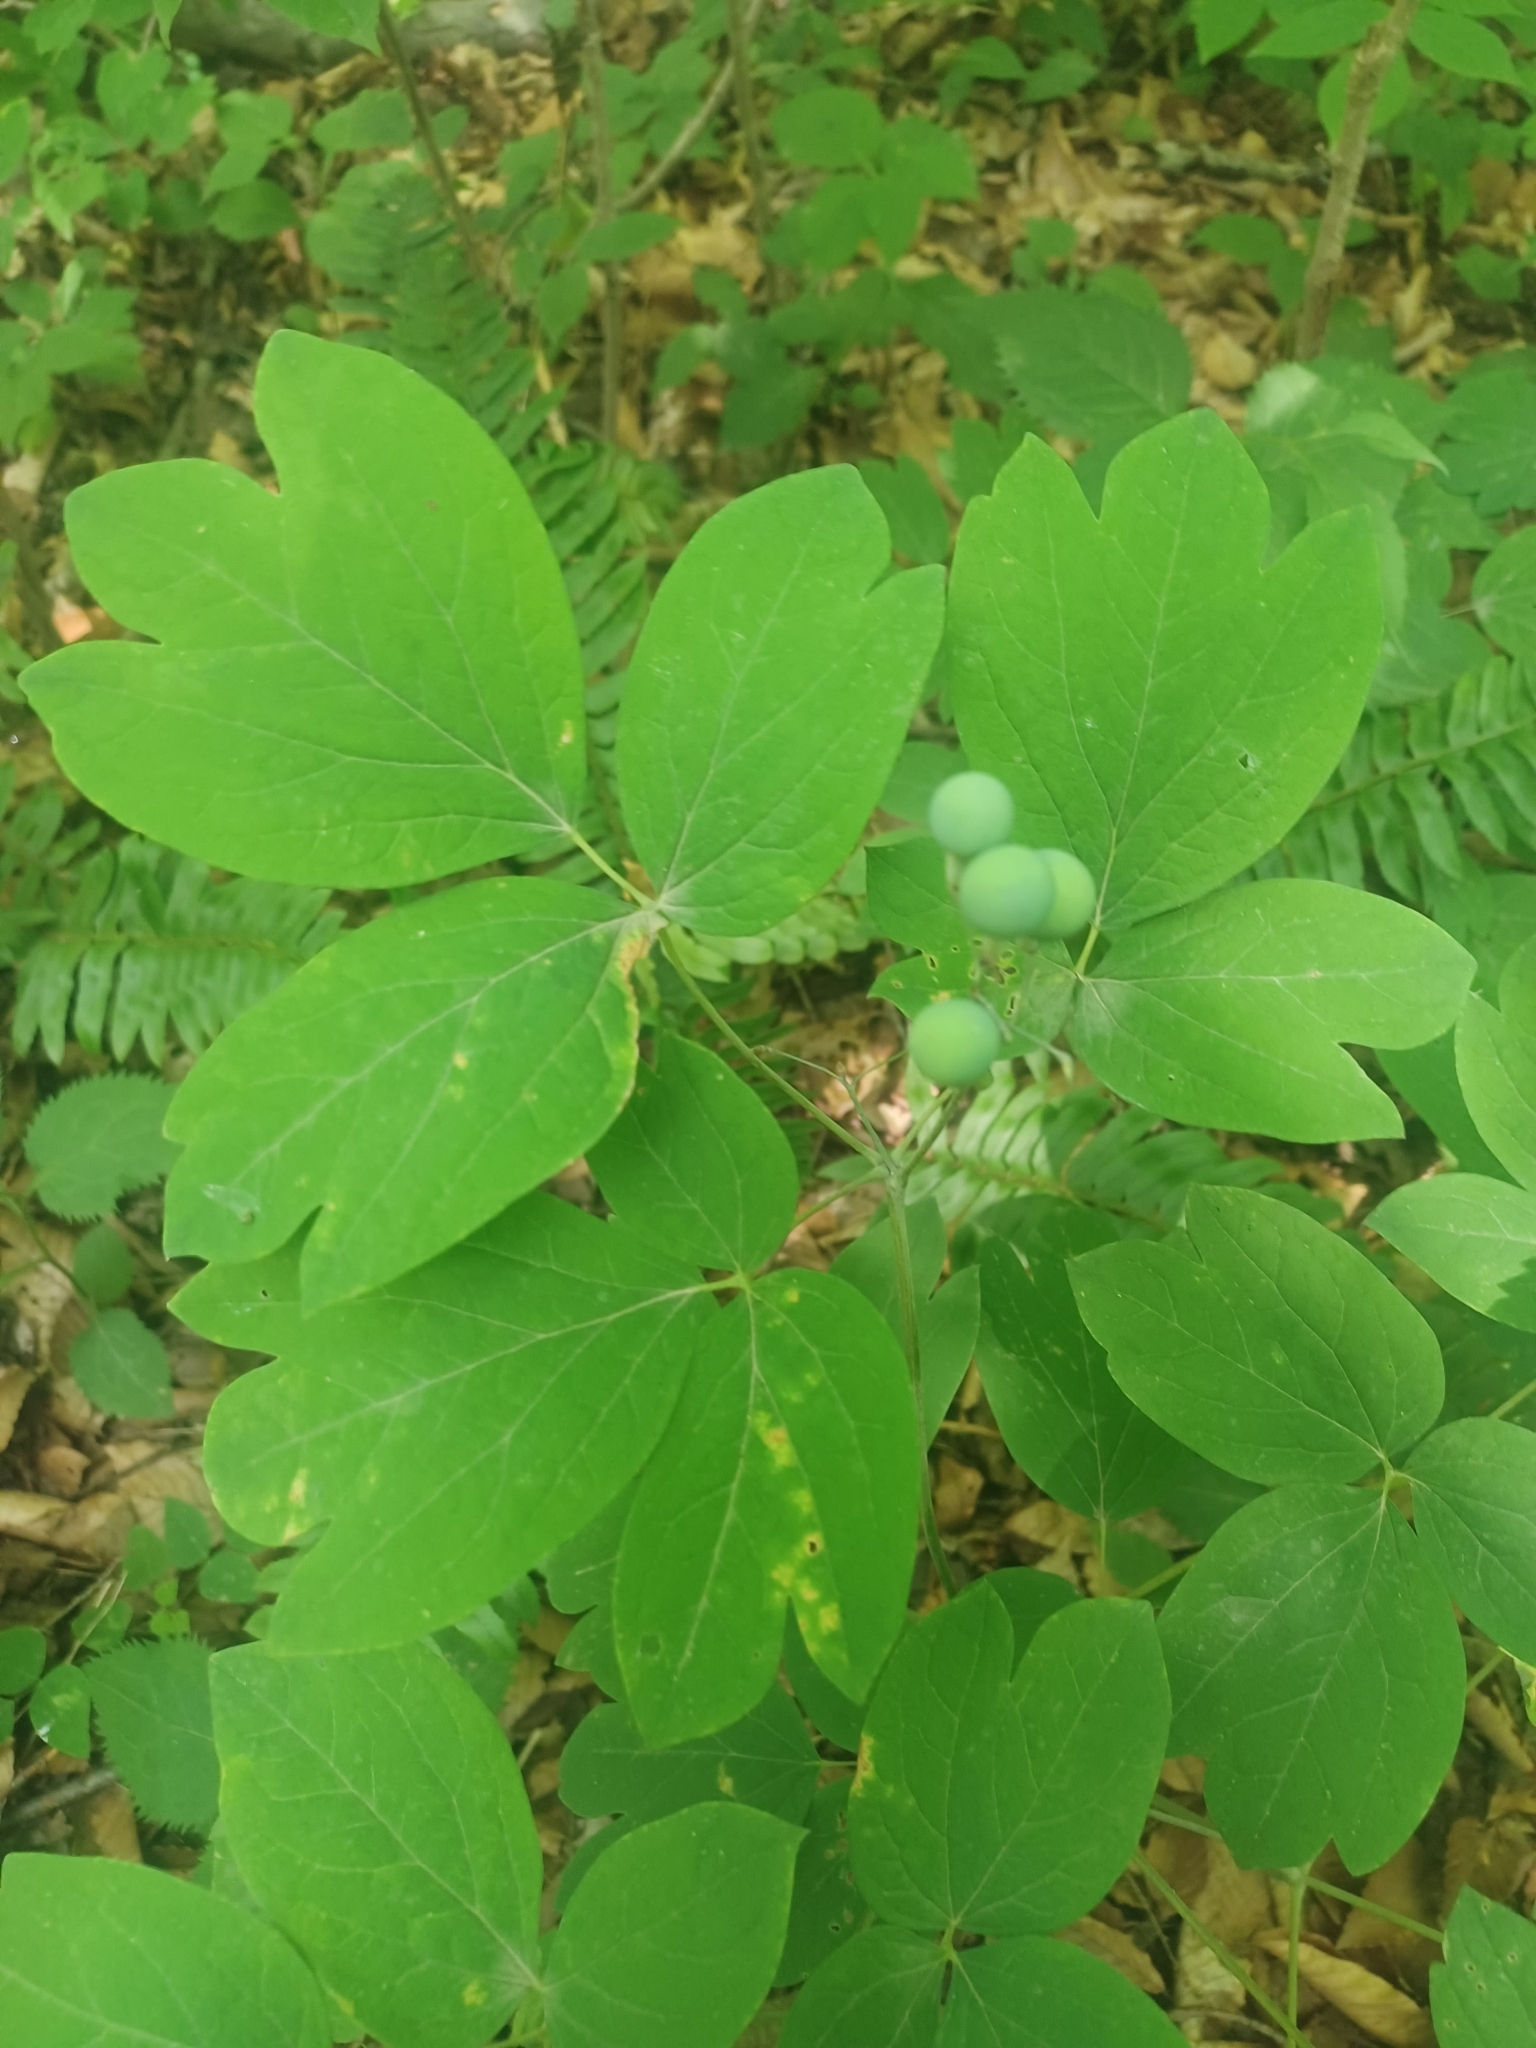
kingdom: Plantae
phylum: Tracheophyta
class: Magnoliopsida
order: Ranunculales
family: Berberidaceae
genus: Caulophyllum
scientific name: Caulophyllum thalictroides
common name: Blue cohosh
